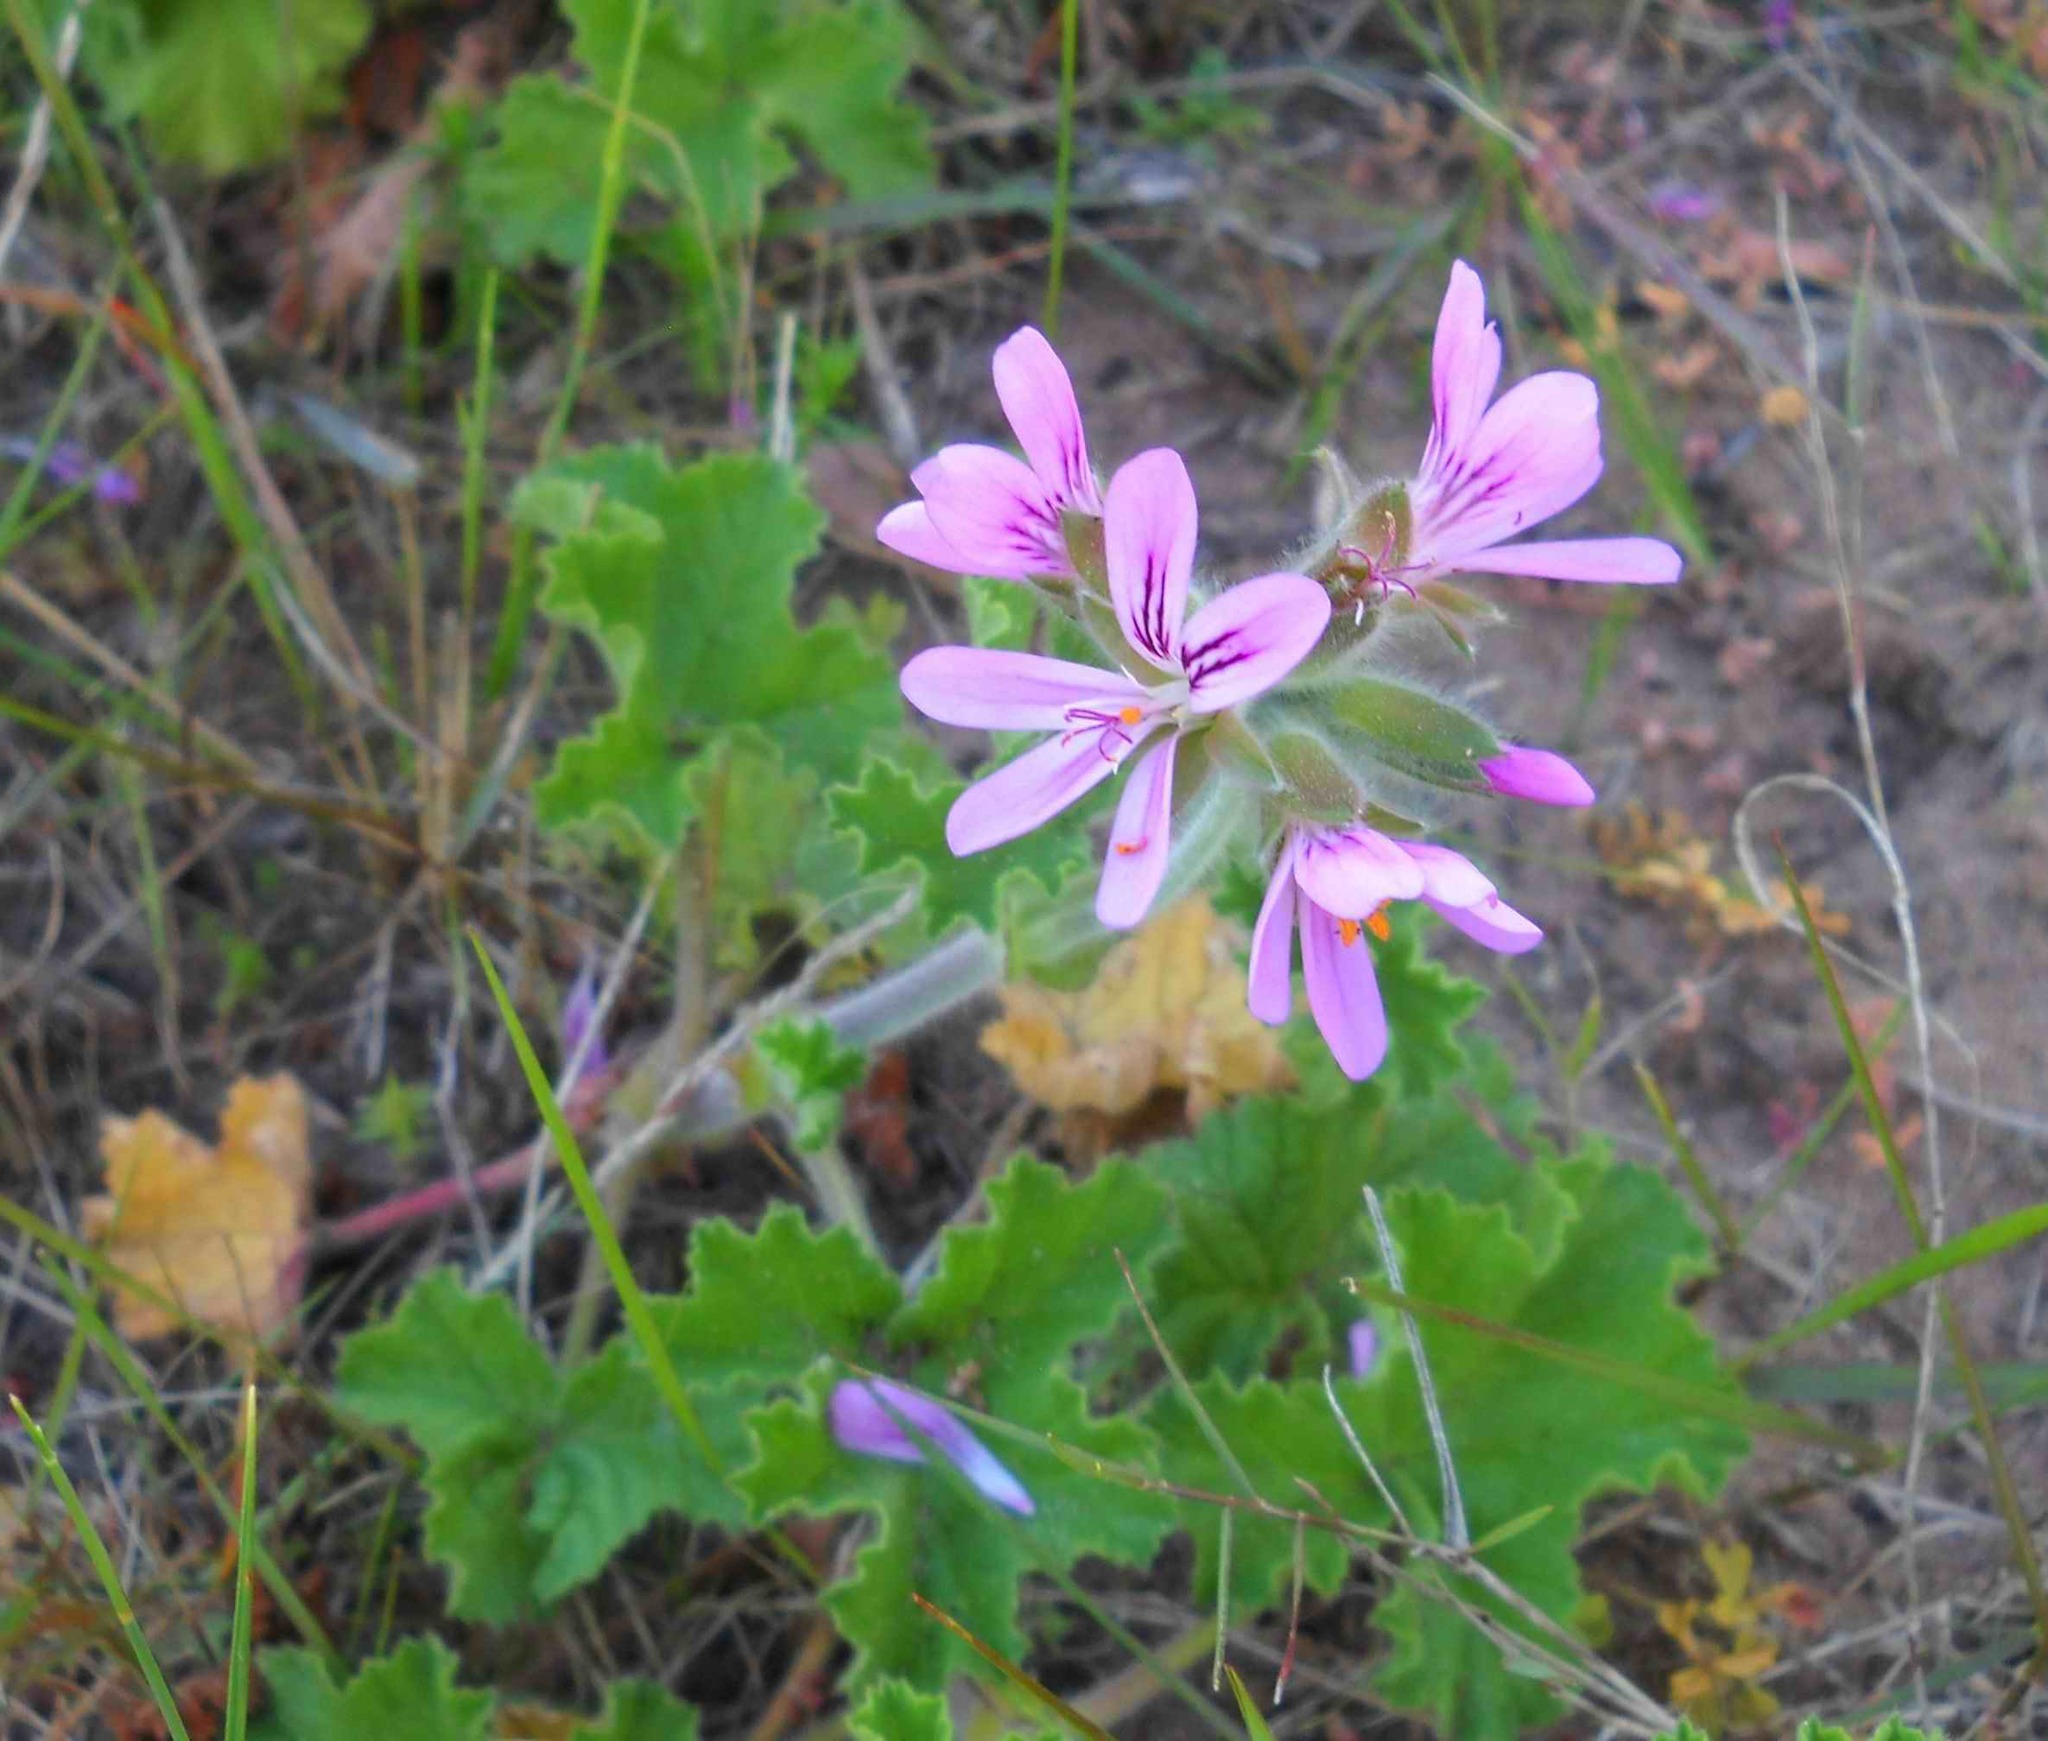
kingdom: Plantae
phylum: Tracheophyta
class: Magnoliopsida
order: Geraniales
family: Geraniaceae
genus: Pelargonium
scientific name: Pelargonium capitatum
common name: Rose scented geranium
